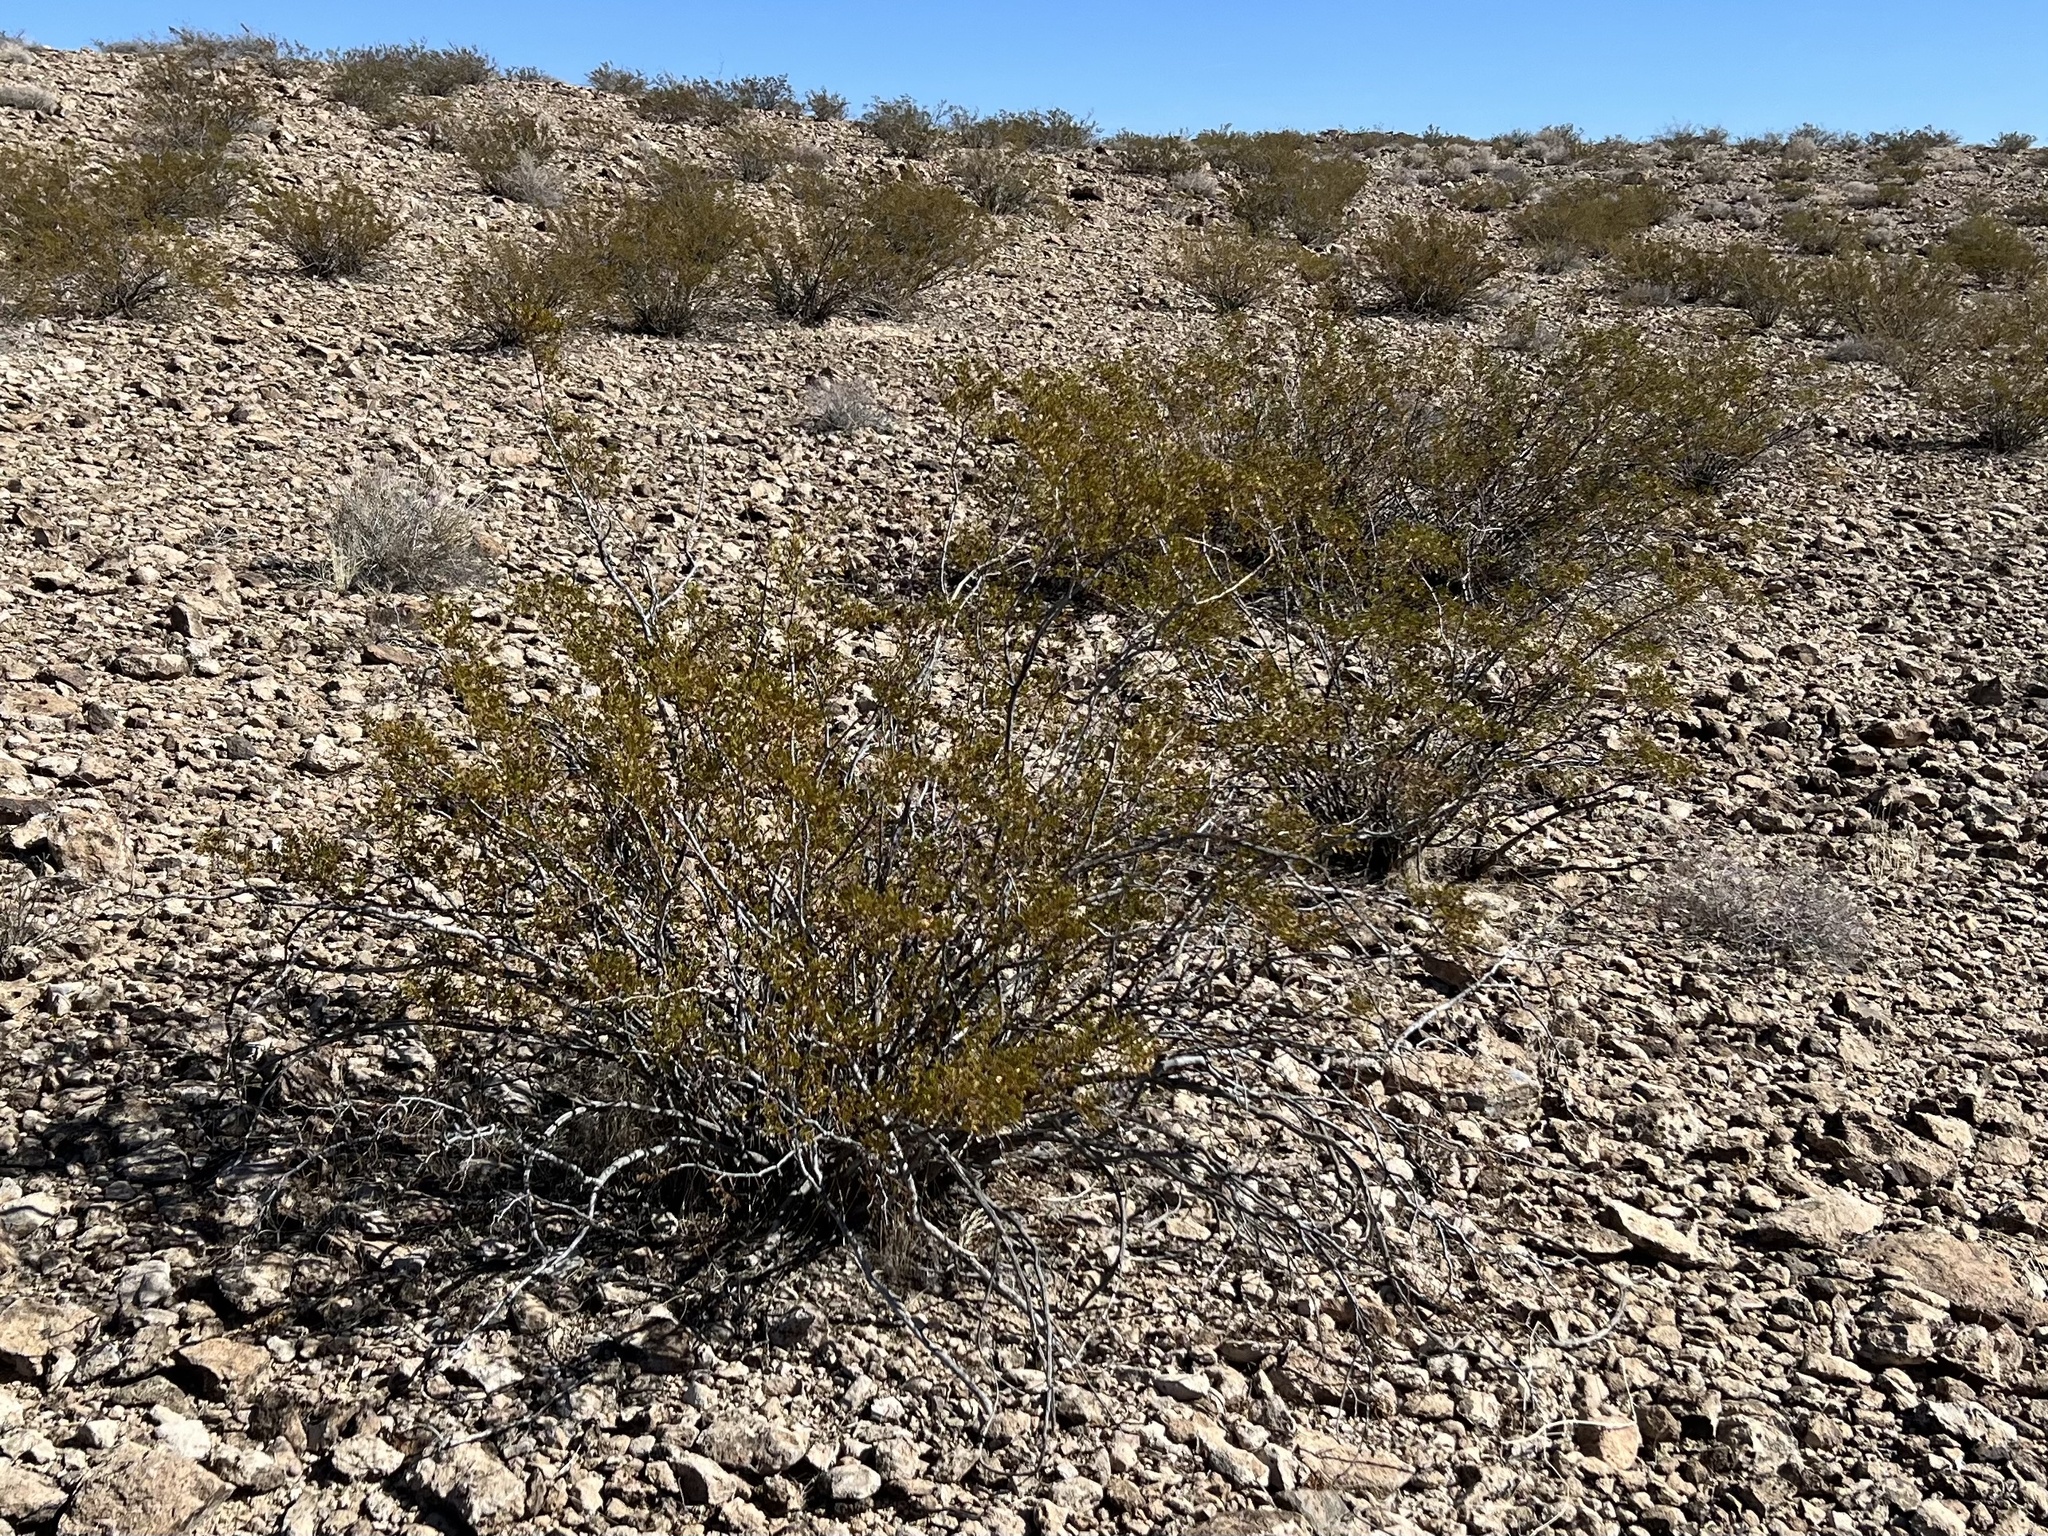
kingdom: Plantae
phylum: Tracheophyta
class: Magnoliopsida
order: Zygophyllales
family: Zygophyllaceae
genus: Larrea
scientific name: Larrea tridentata
